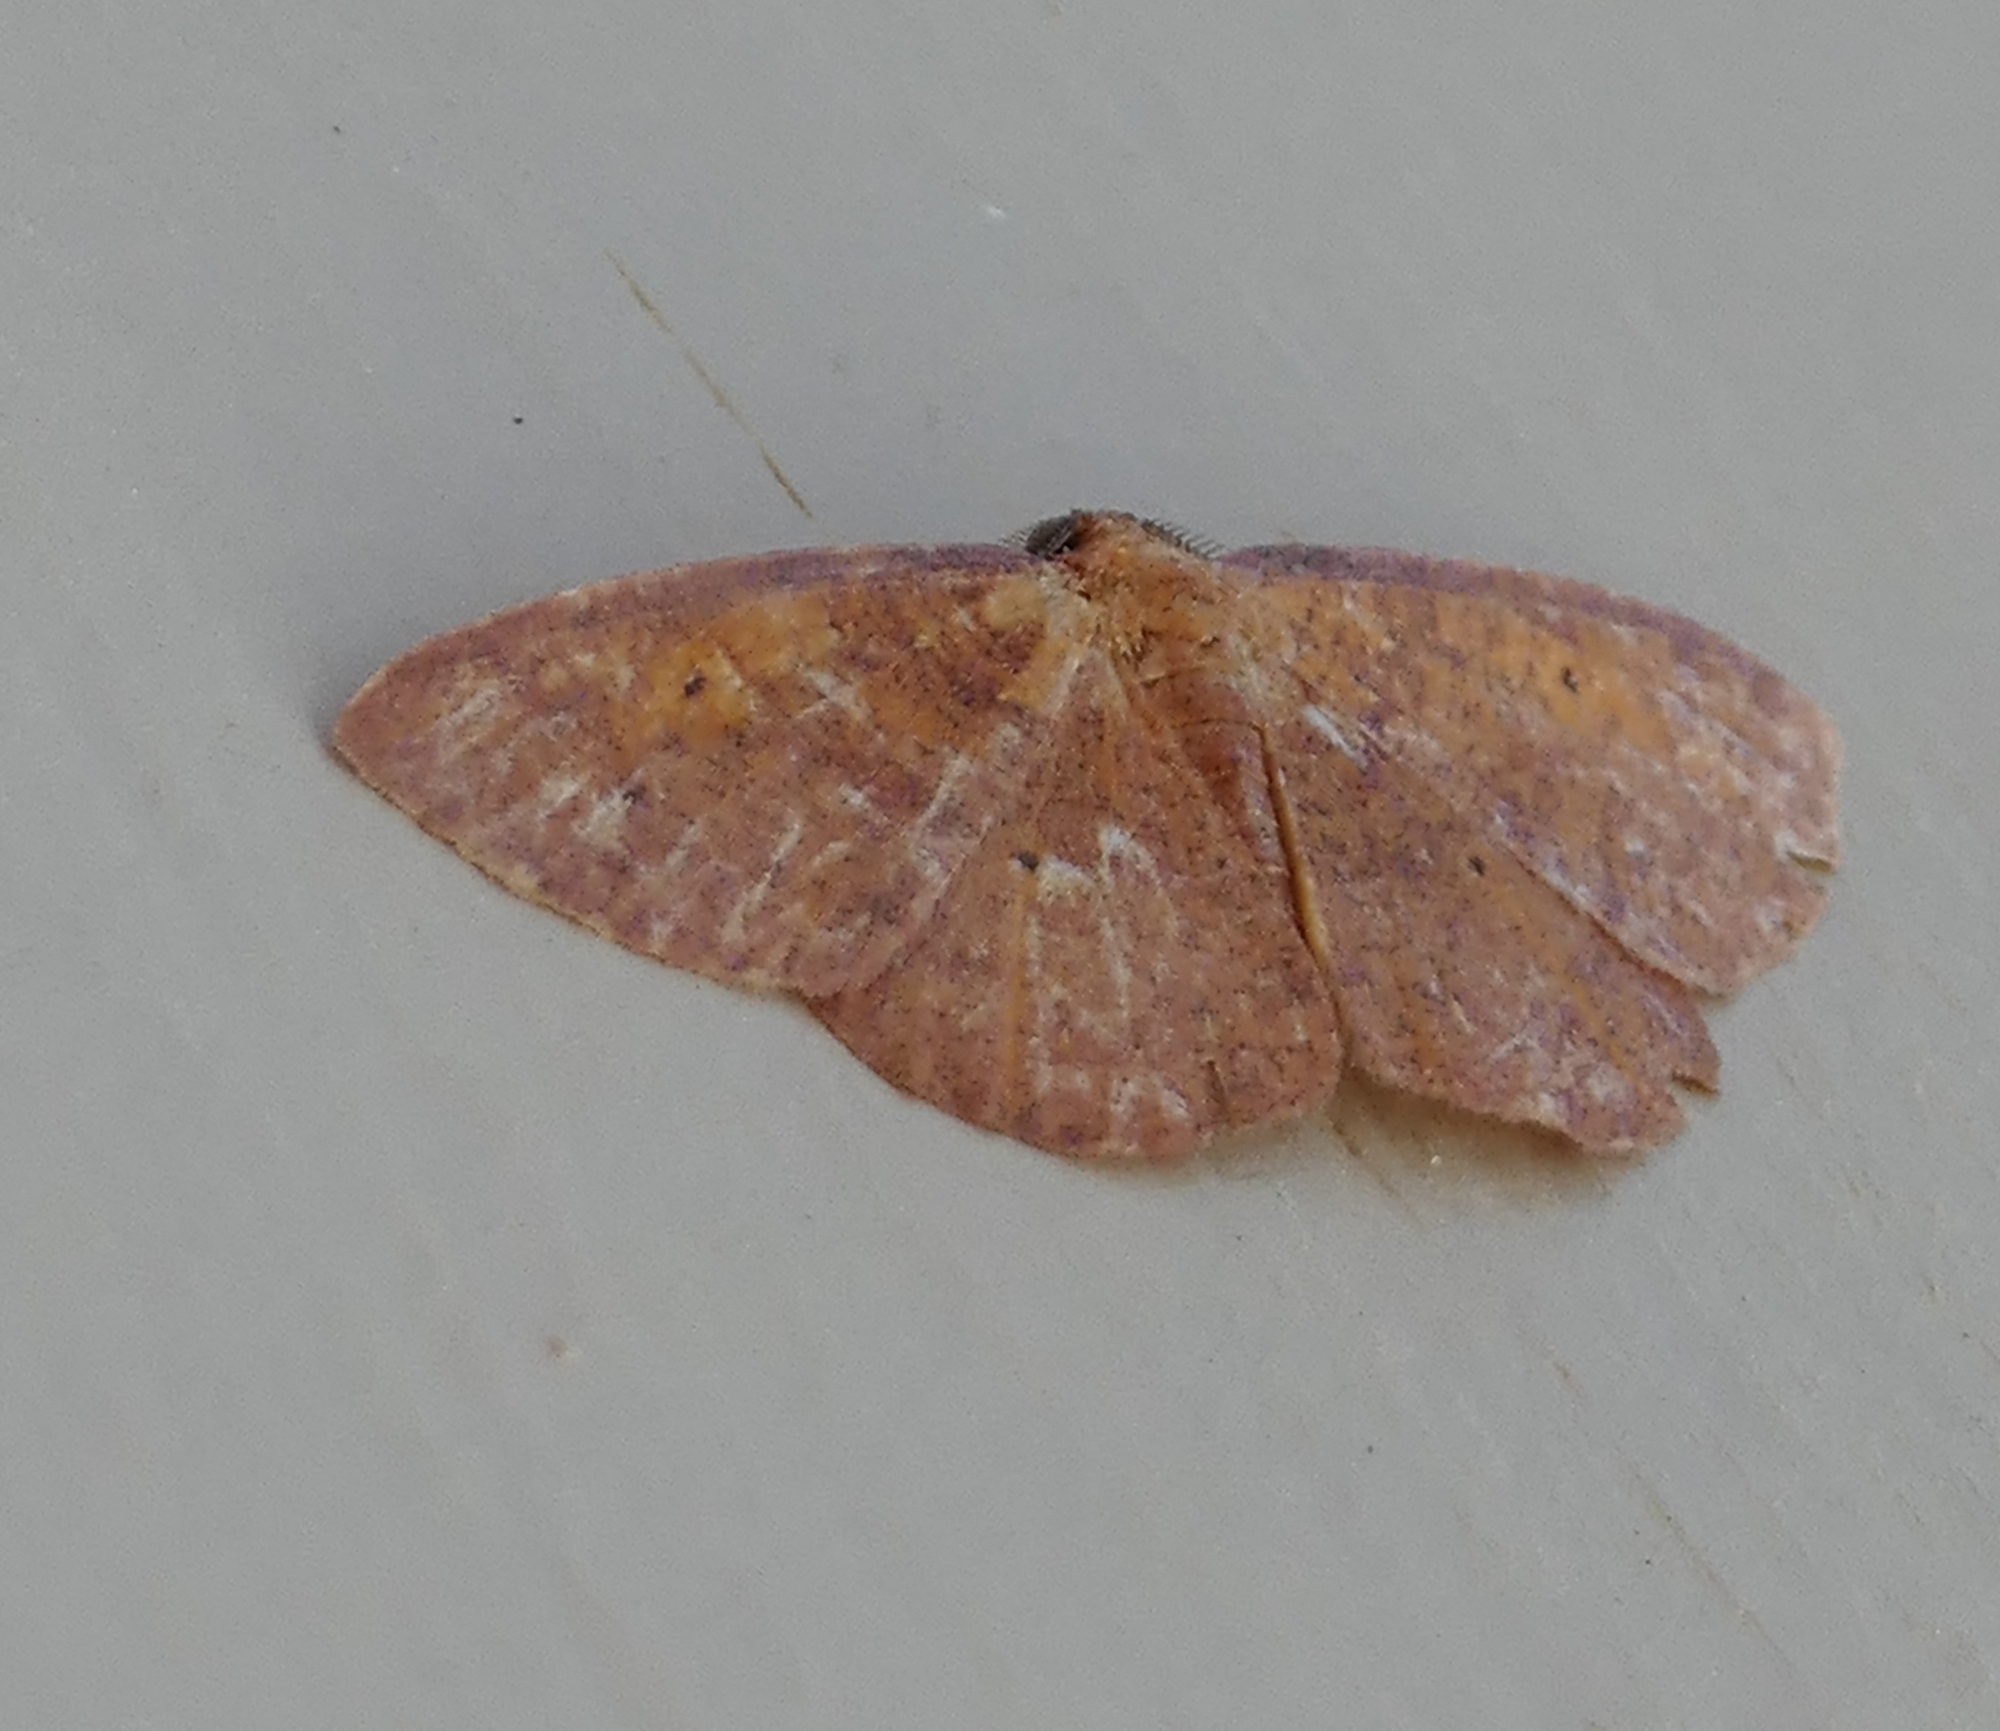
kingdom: Animalia
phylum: Arthropoda
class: Insecta
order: Lepidoptera
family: Geometridae
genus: Ilexia
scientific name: Ilexia intractata
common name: Black-dotted ruddy moth
